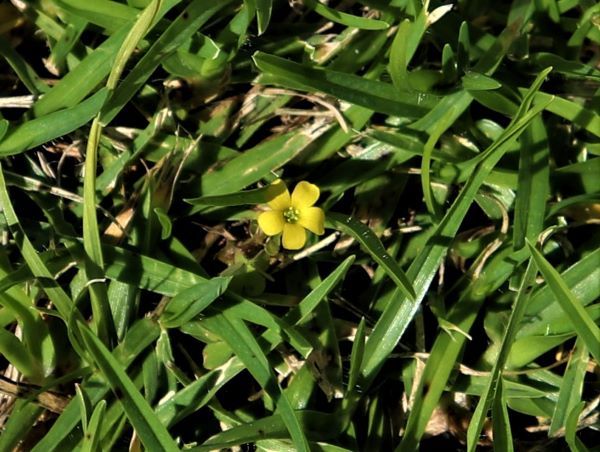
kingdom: Plantae
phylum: Tracheophyta
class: Magnoliopsida
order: Oxalidales
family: Oxalidaceae
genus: Oxalis
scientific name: Oxalis corniculata
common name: Procumbent yellow-sorrel
